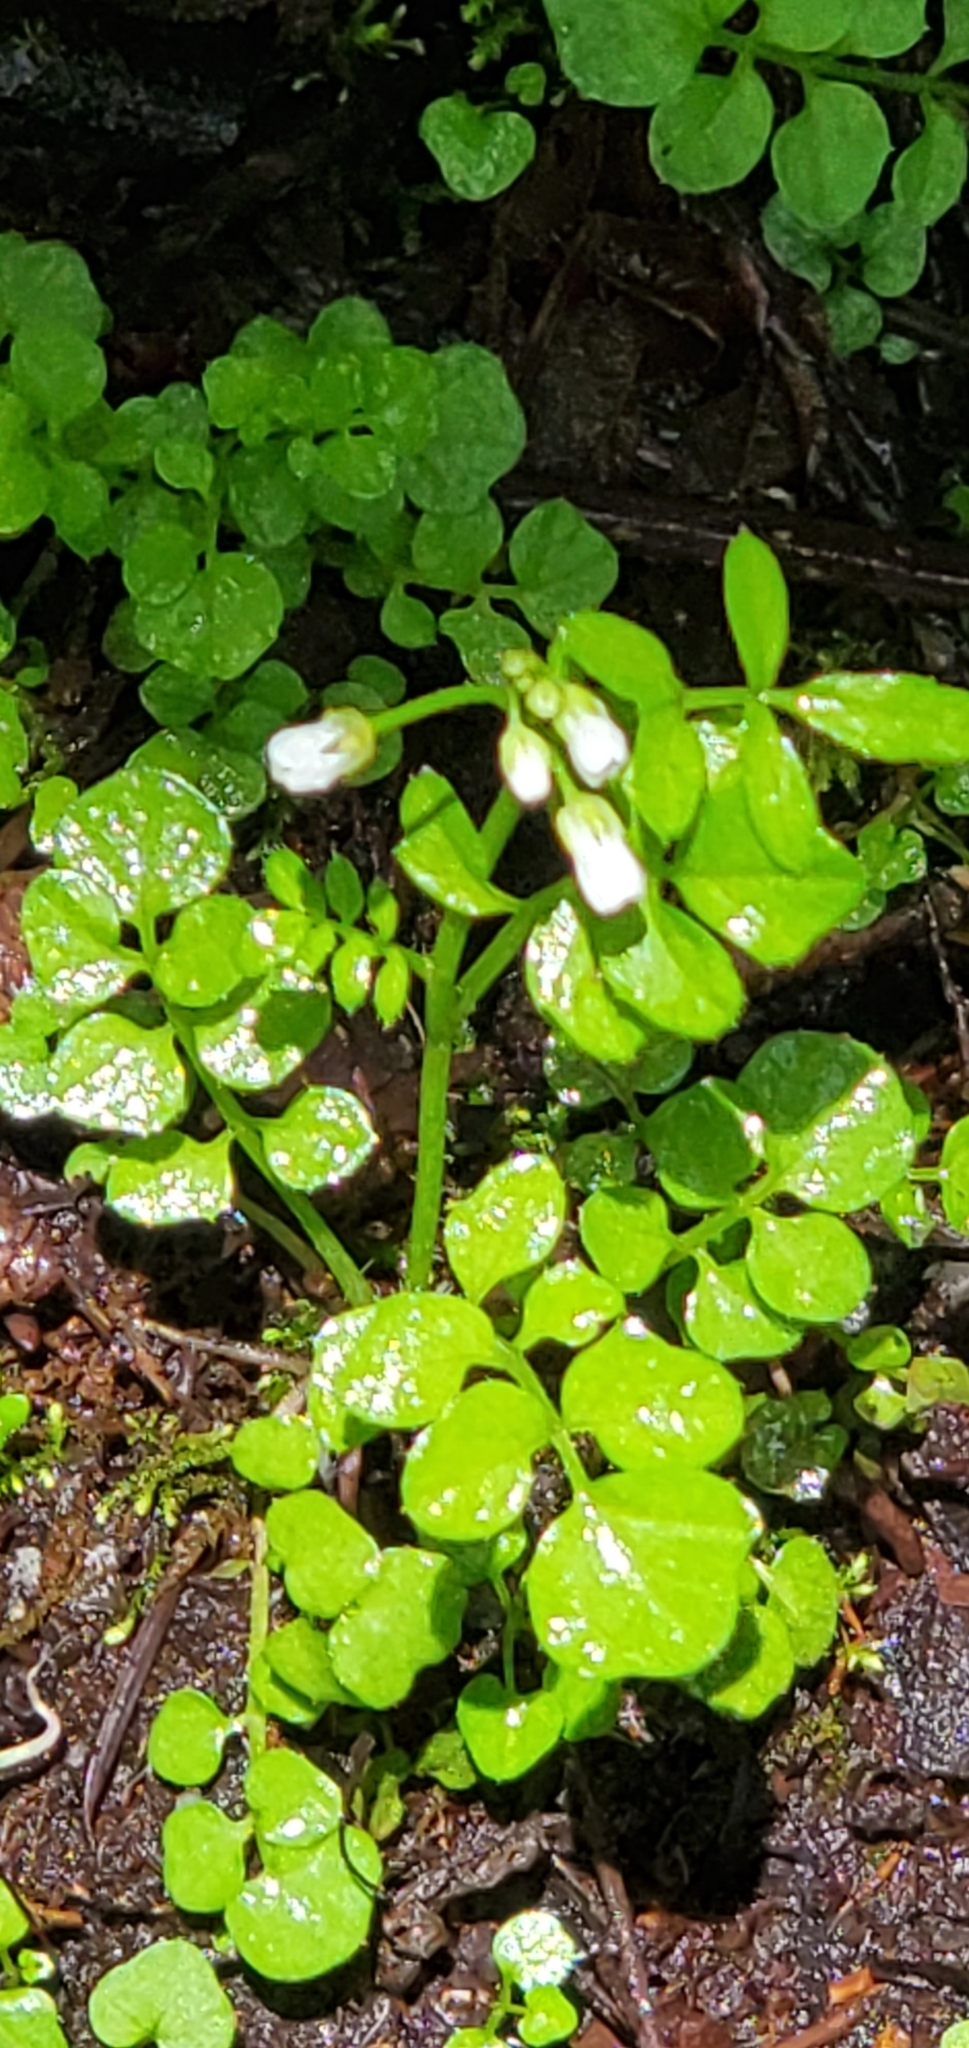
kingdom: Plantae
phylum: Tracheophyta
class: Magnoliopsida
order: Brassicales
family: Brassicaceae
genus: Cardamine
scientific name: Cardamine umbellata
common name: Siberian bittercress
